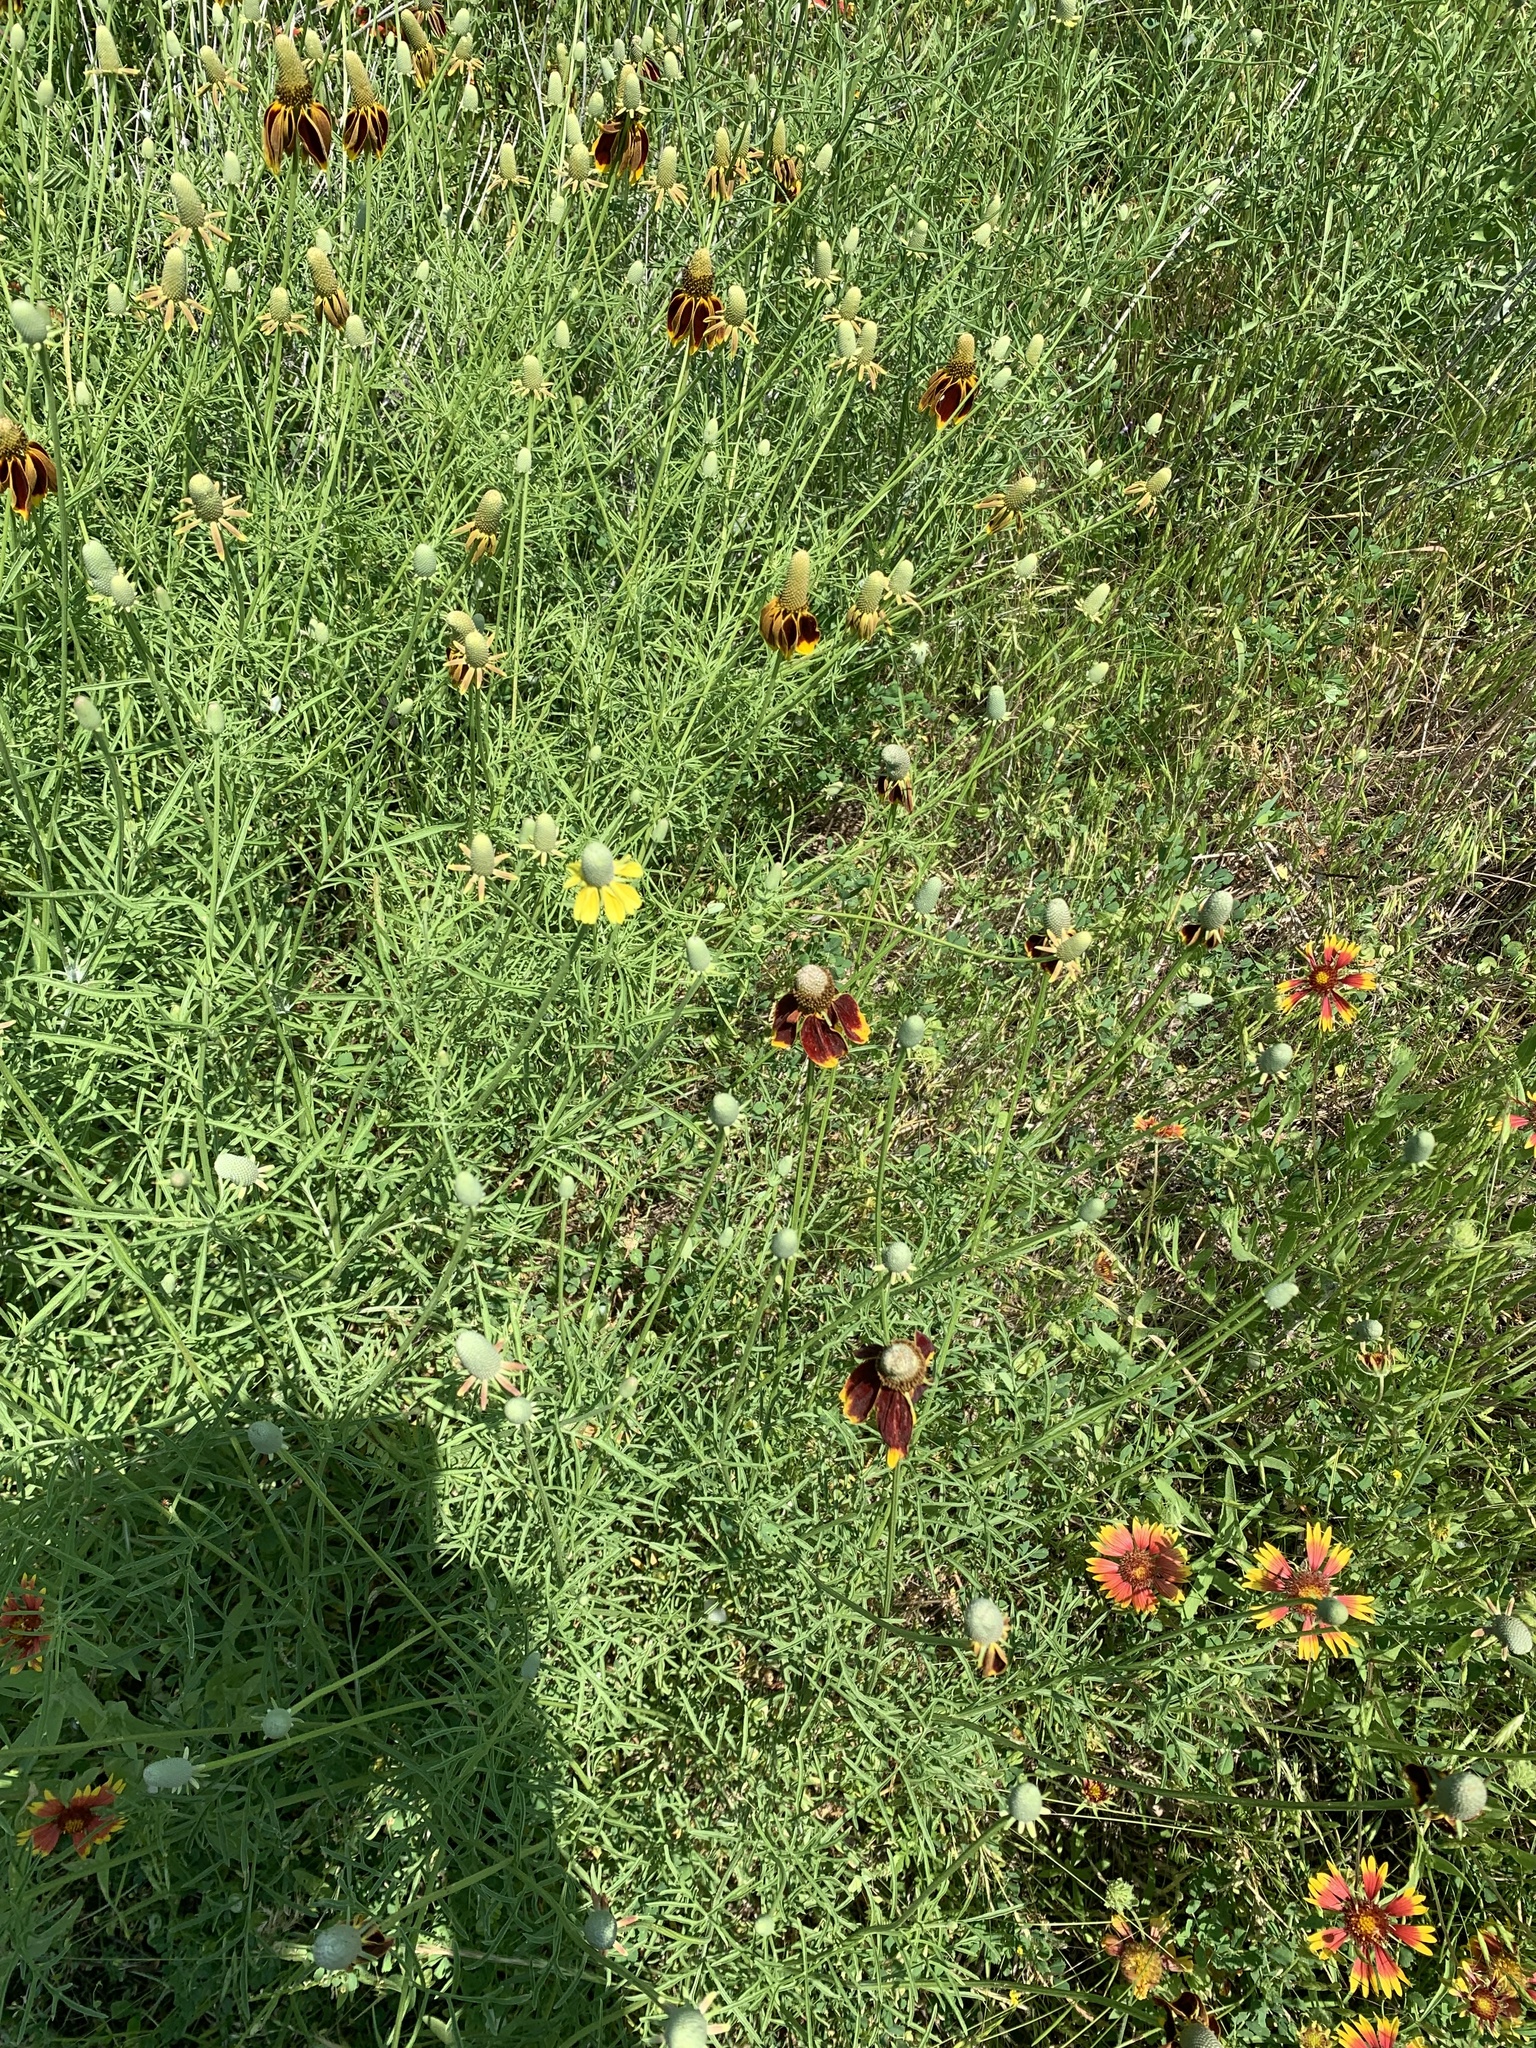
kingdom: Plantae
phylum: Tracheophyta
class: Magnoliopsida
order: Asterales
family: Asteraceae
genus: Ratibida
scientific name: Ratibida columnifera
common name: Prairie coneflower
